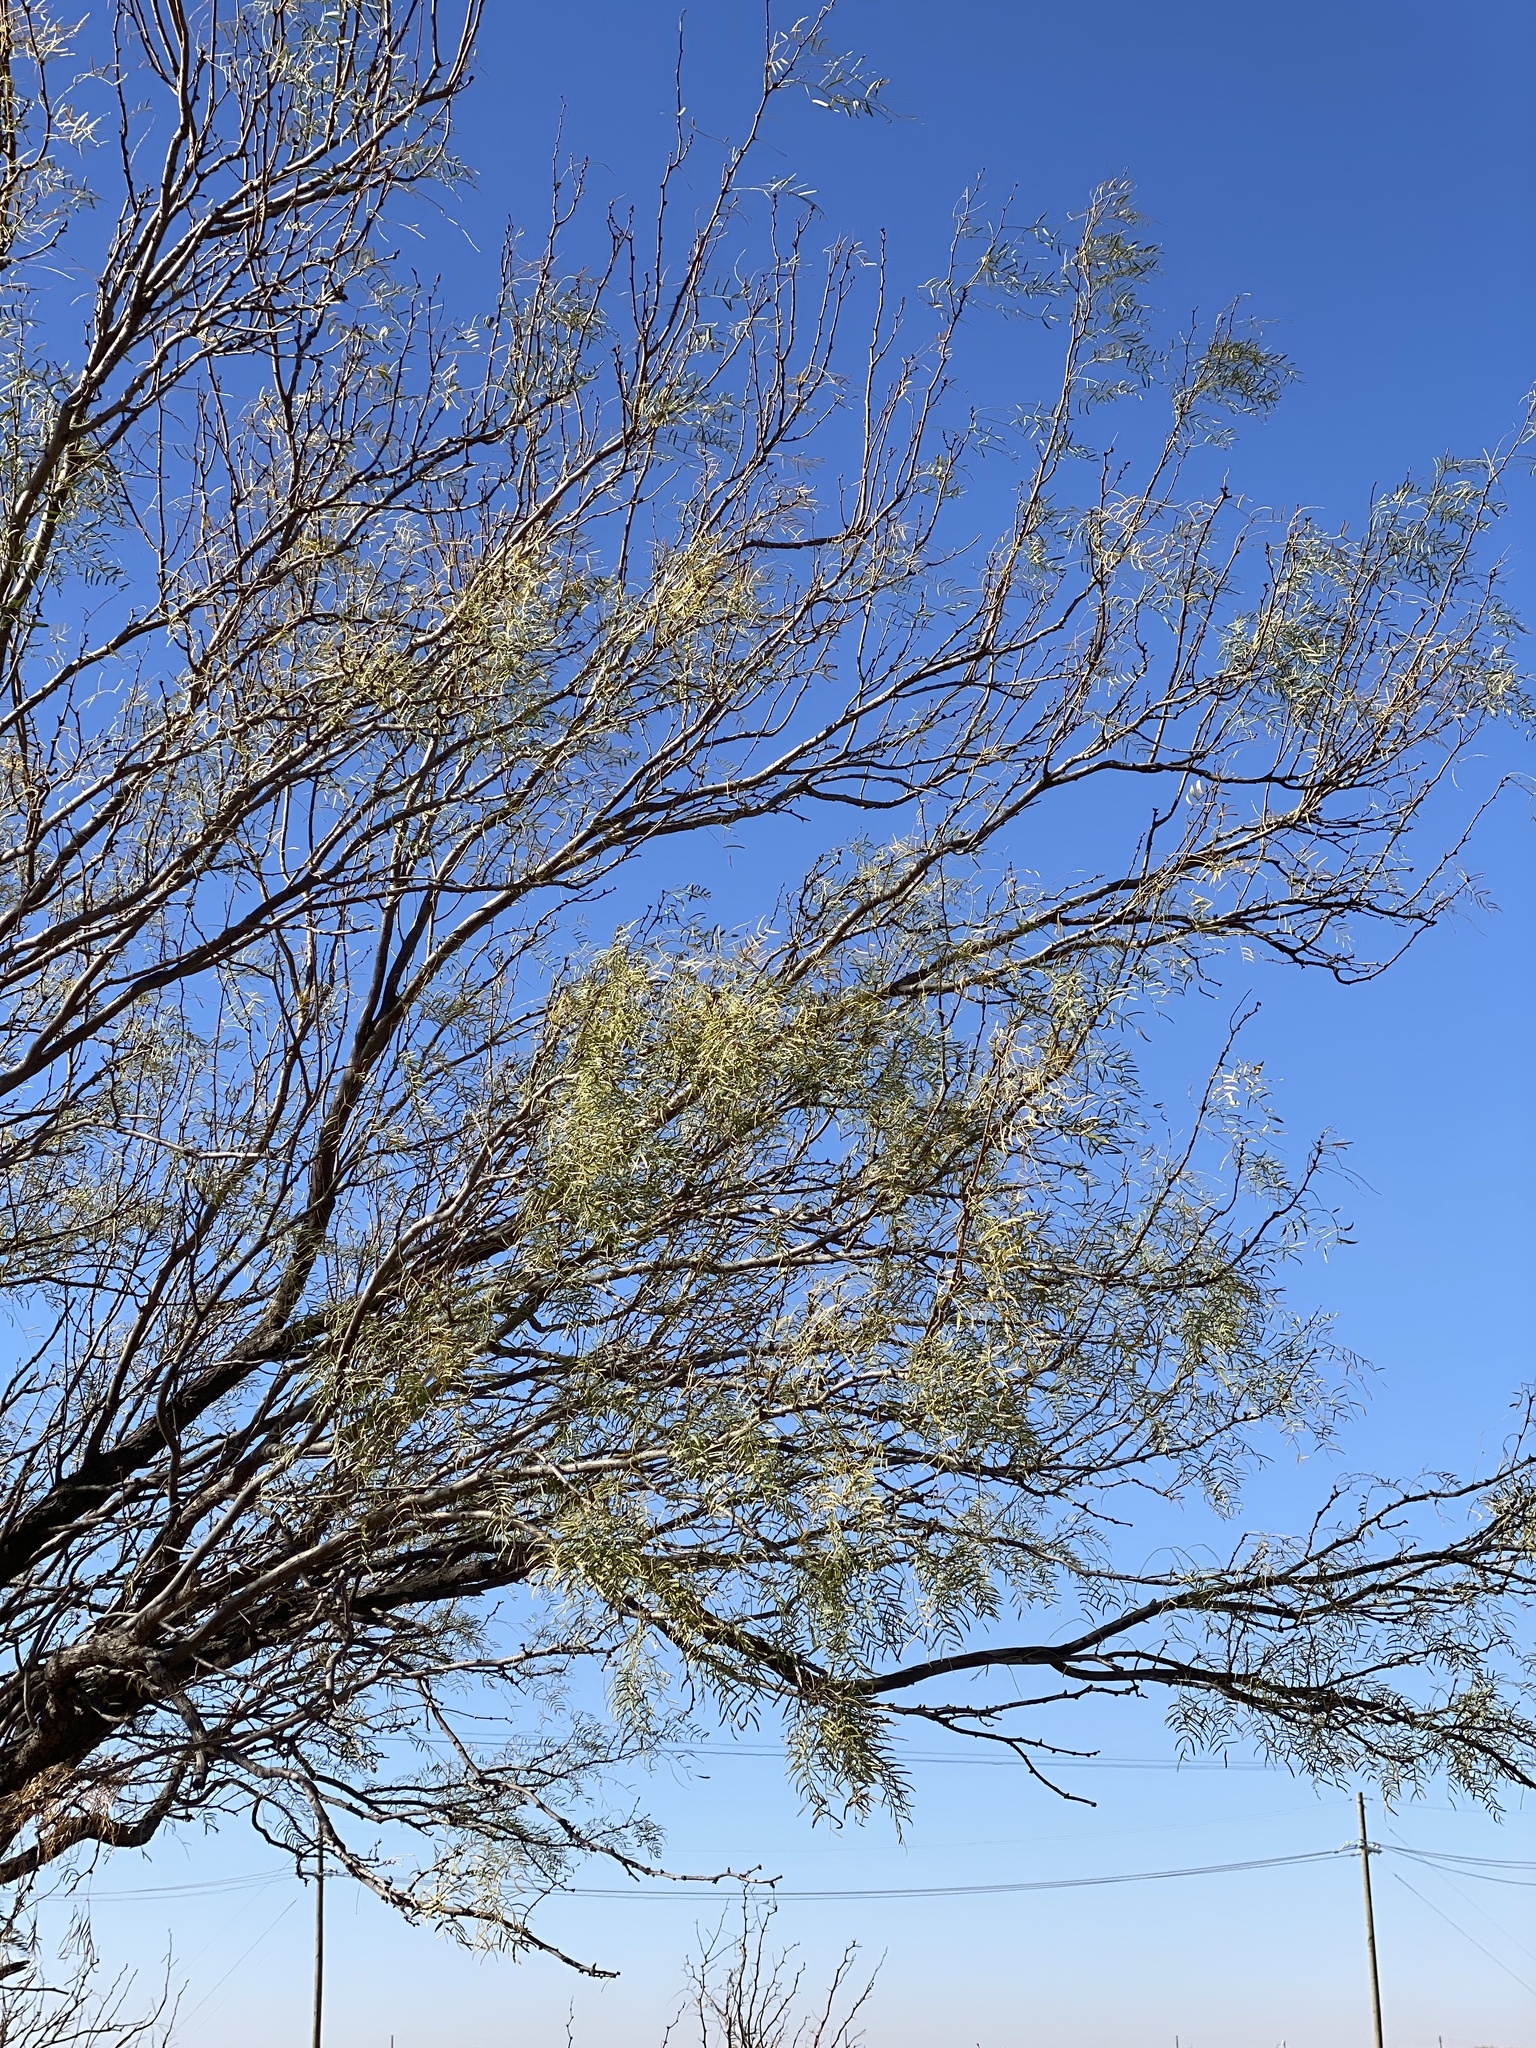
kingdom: Plantae
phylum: Tracheophyta
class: Magnoliopsida
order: Fabales
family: Fabaceae
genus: Prosopis
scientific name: Prosopis glandulosa
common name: Honey mesquite
